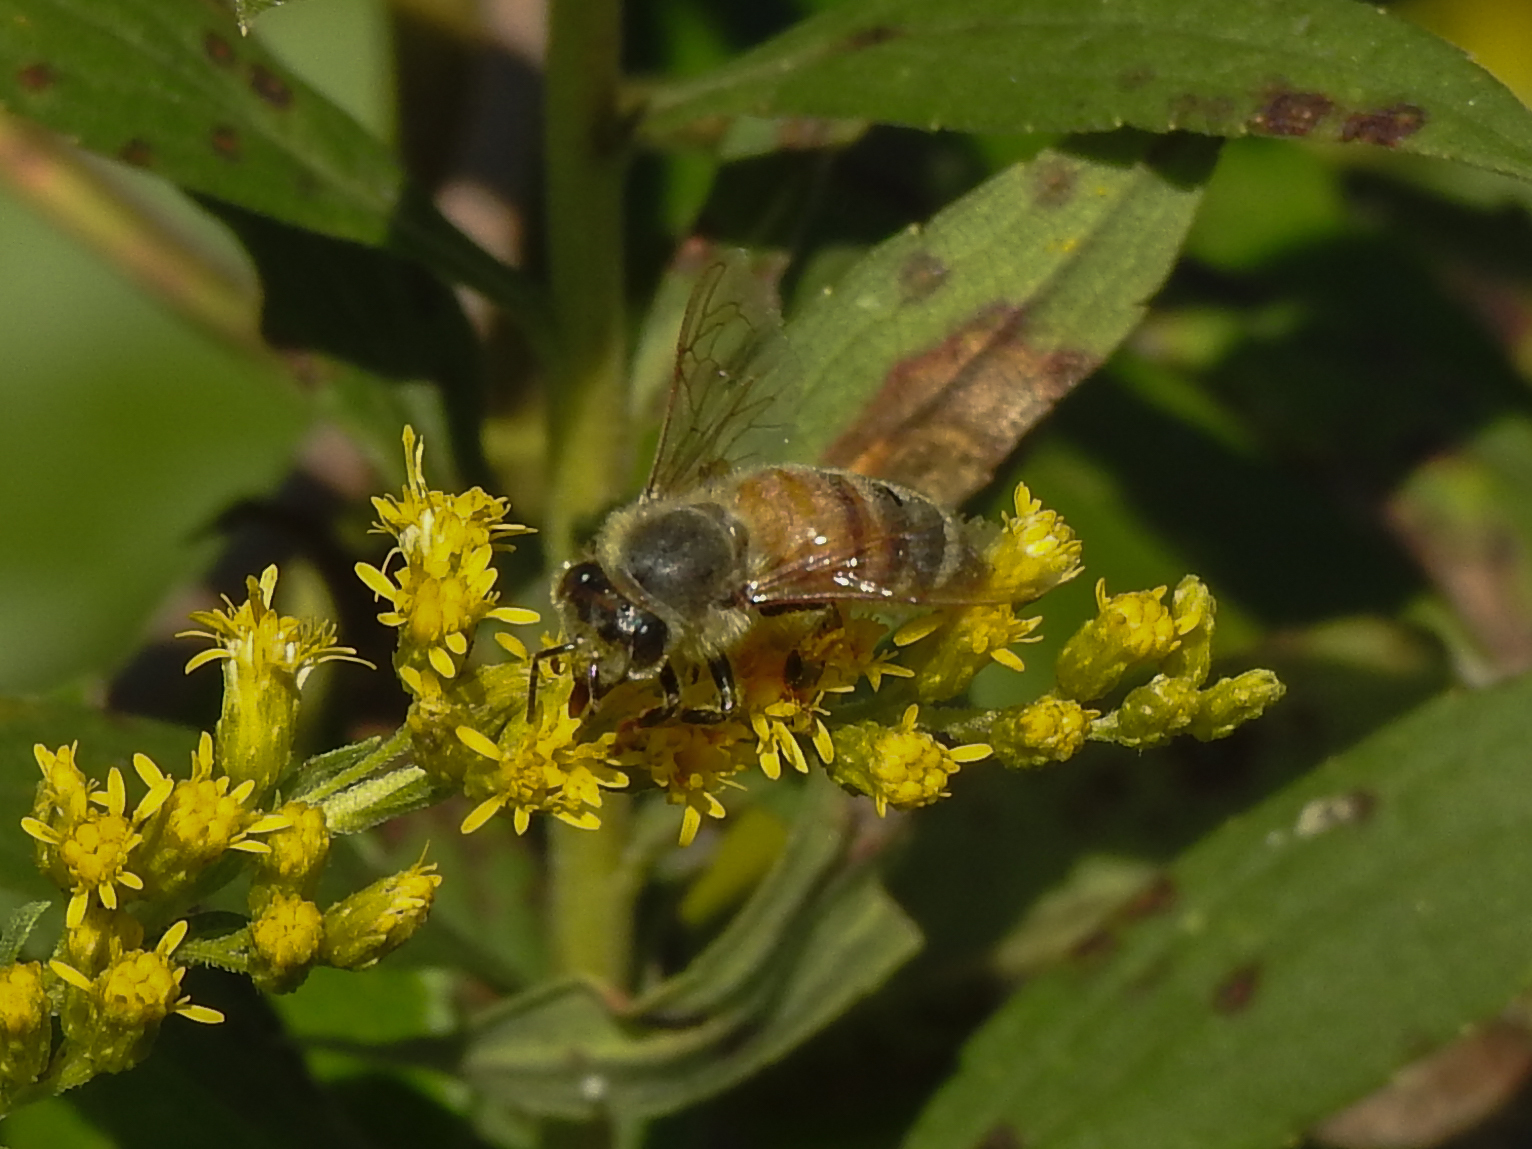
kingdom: Animalia
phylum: Arthropoda
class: Insecta
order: Hymenoptera
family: Apidae
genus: Apis
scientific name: Apis mellifera
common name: Honey bee
